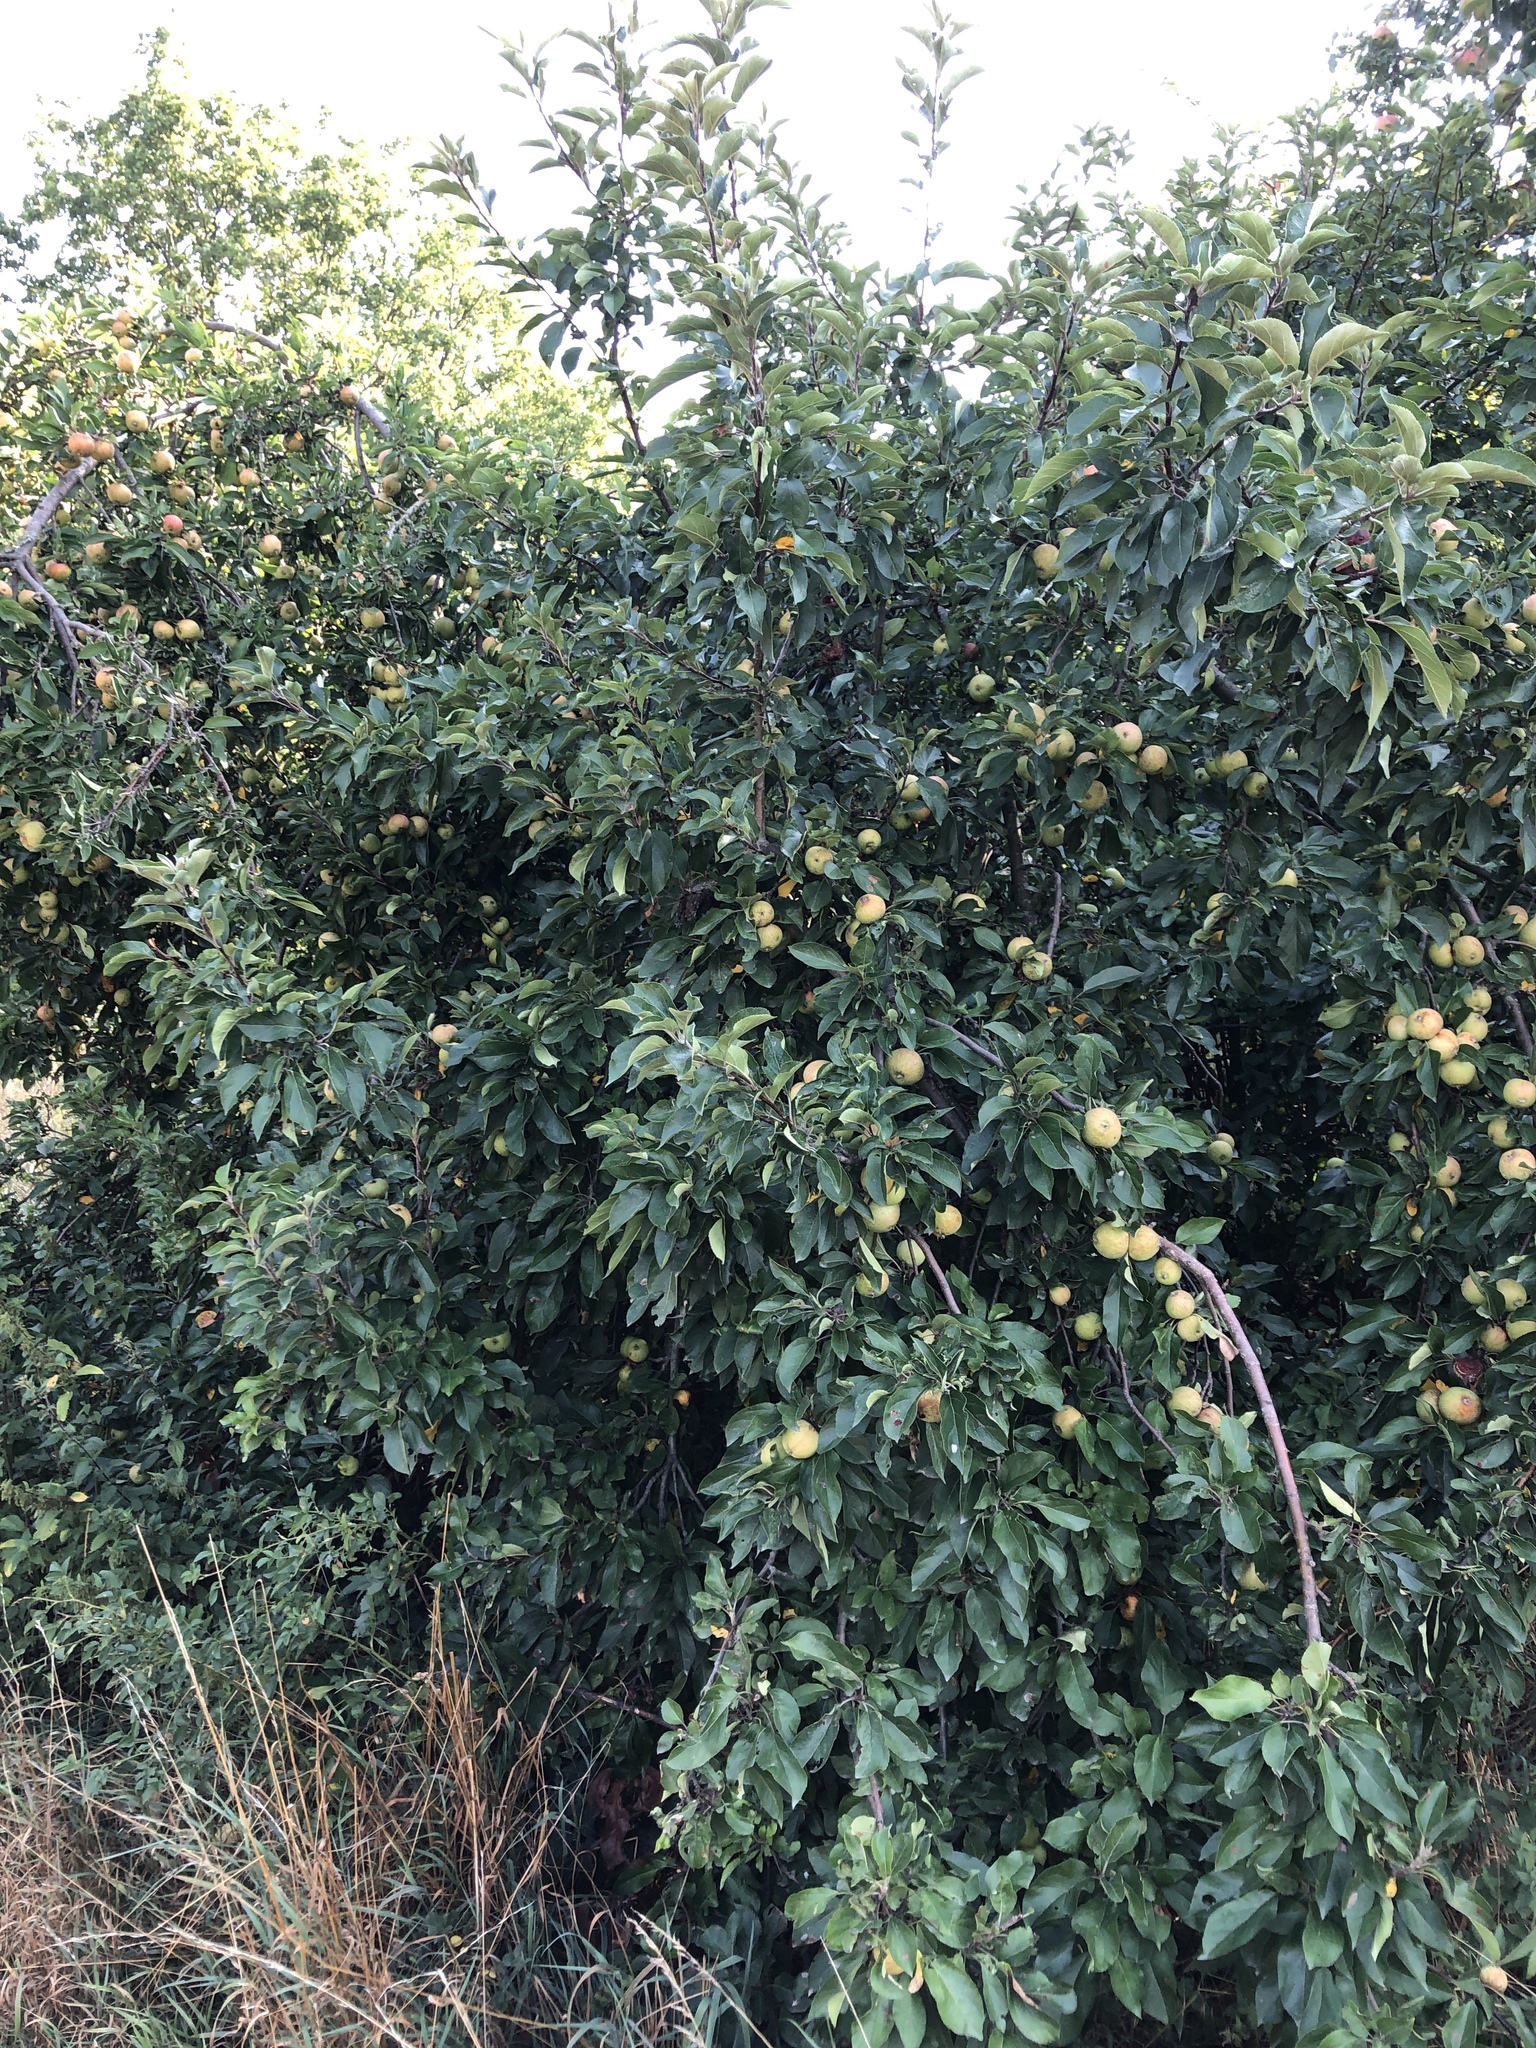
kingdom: Plantae
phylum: Tracheophyta
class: Magnoliopsida
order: Rosales
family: Rosaceae
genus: Malus
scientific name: Malus domestica
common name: Apple
